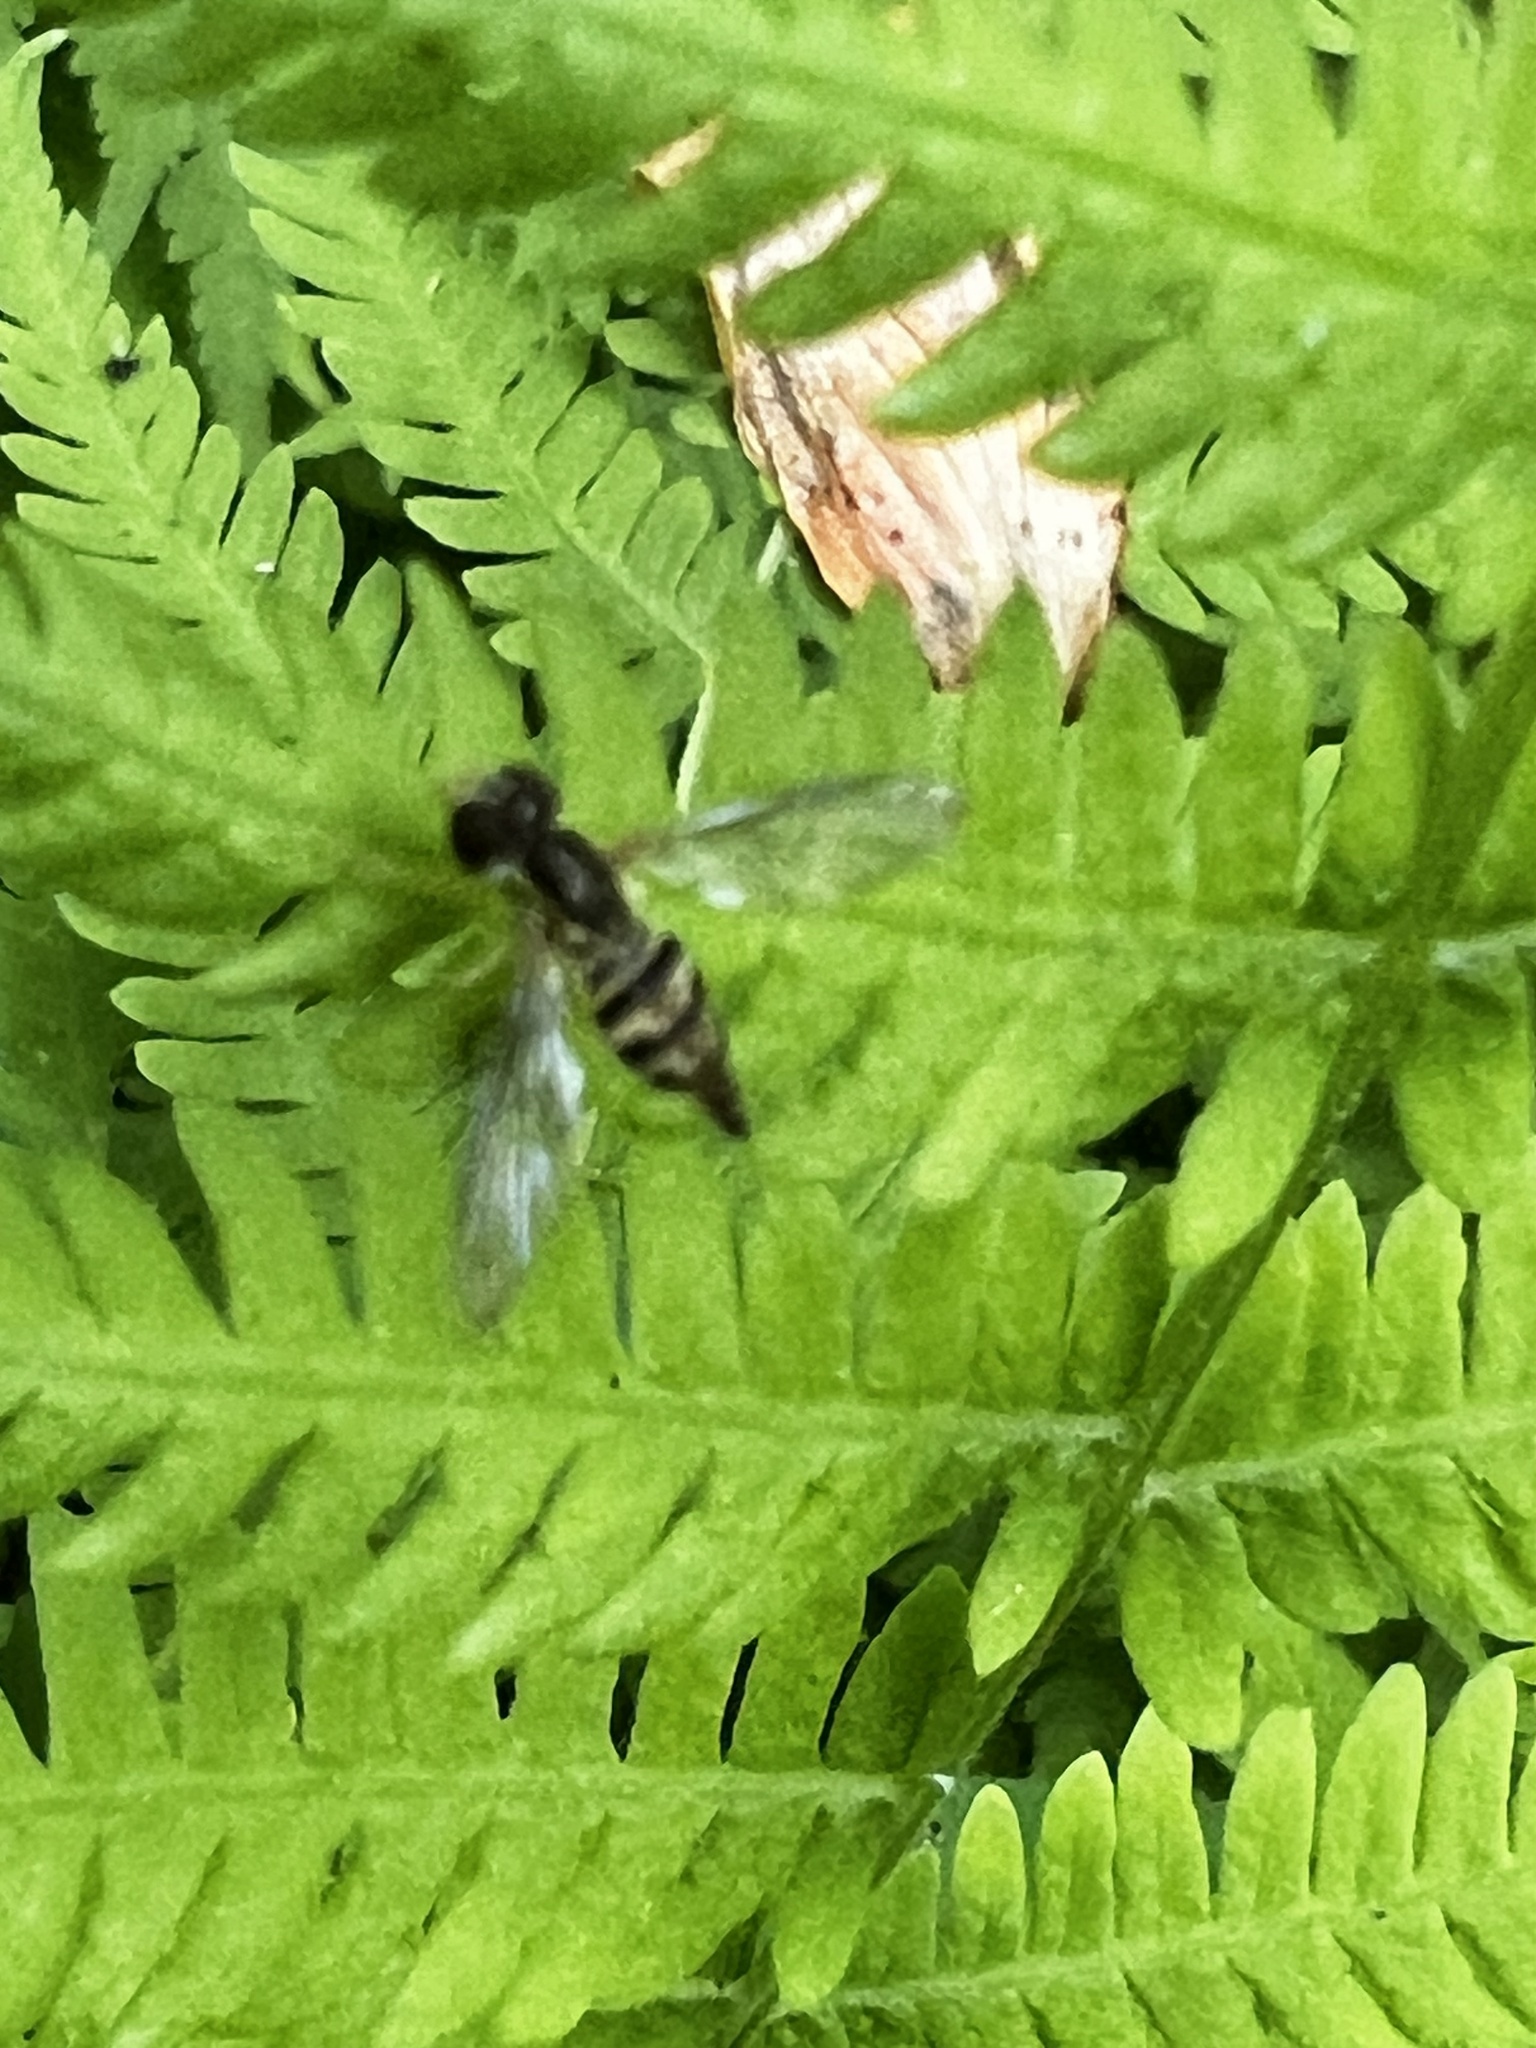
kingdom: Animalia
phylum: Arthropoda
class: Insecta
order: Diptera
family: Syrphidae
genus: Toxomerus
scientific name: Toxomerus geminatus
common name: Eastern calligrapher
